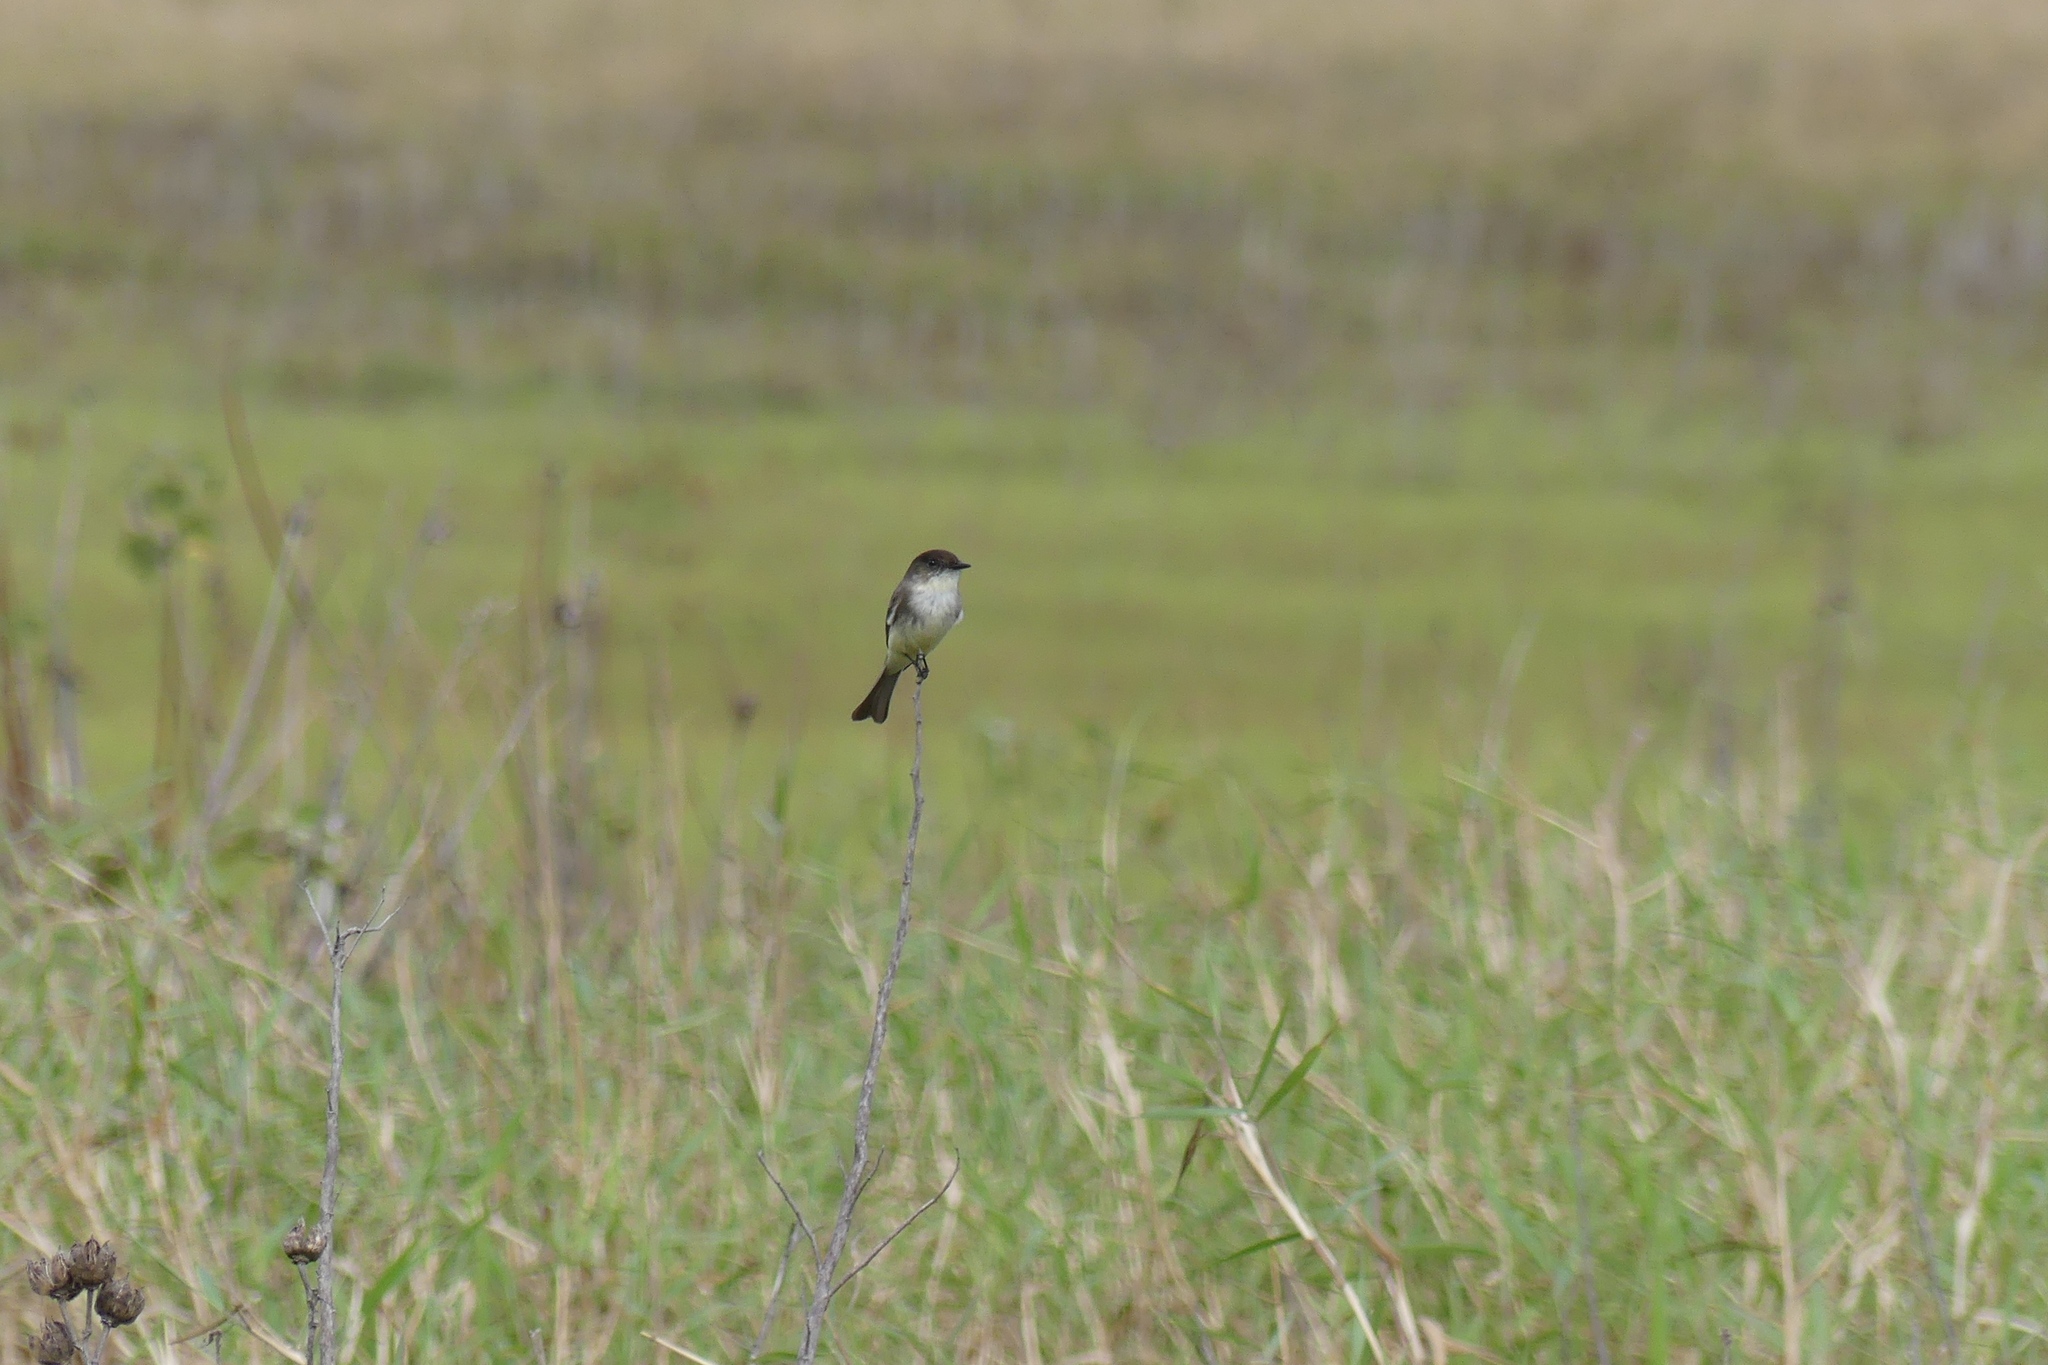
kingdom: Animalia
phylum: Chordata
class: Aves
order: Passeriformes
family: Tyrannidae
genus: Sayornis
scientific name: Sayornis phoebe
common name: Eastern phoebe
